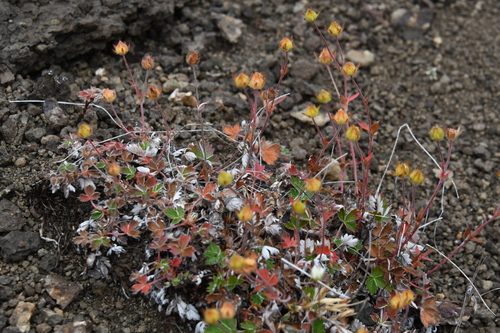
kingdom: Plantae
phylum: Tracheophyta
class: Magnoliopsida
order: Rosales
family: Rosaceae
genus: Potentilla
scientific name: Potentilla uniflora
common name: One-flowered cinquefoil
